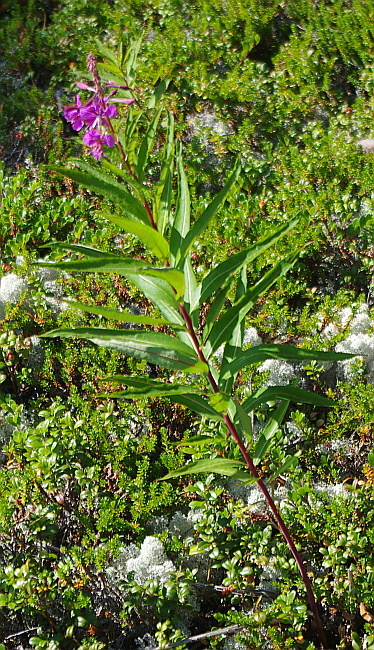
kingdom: Plantae
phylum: Tracheophyta
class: Magnoliopsida
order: Myrtales
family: Onagraceae
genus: Chamaenerion
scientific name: Chamaenerion angustifolium
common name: Fireweed
